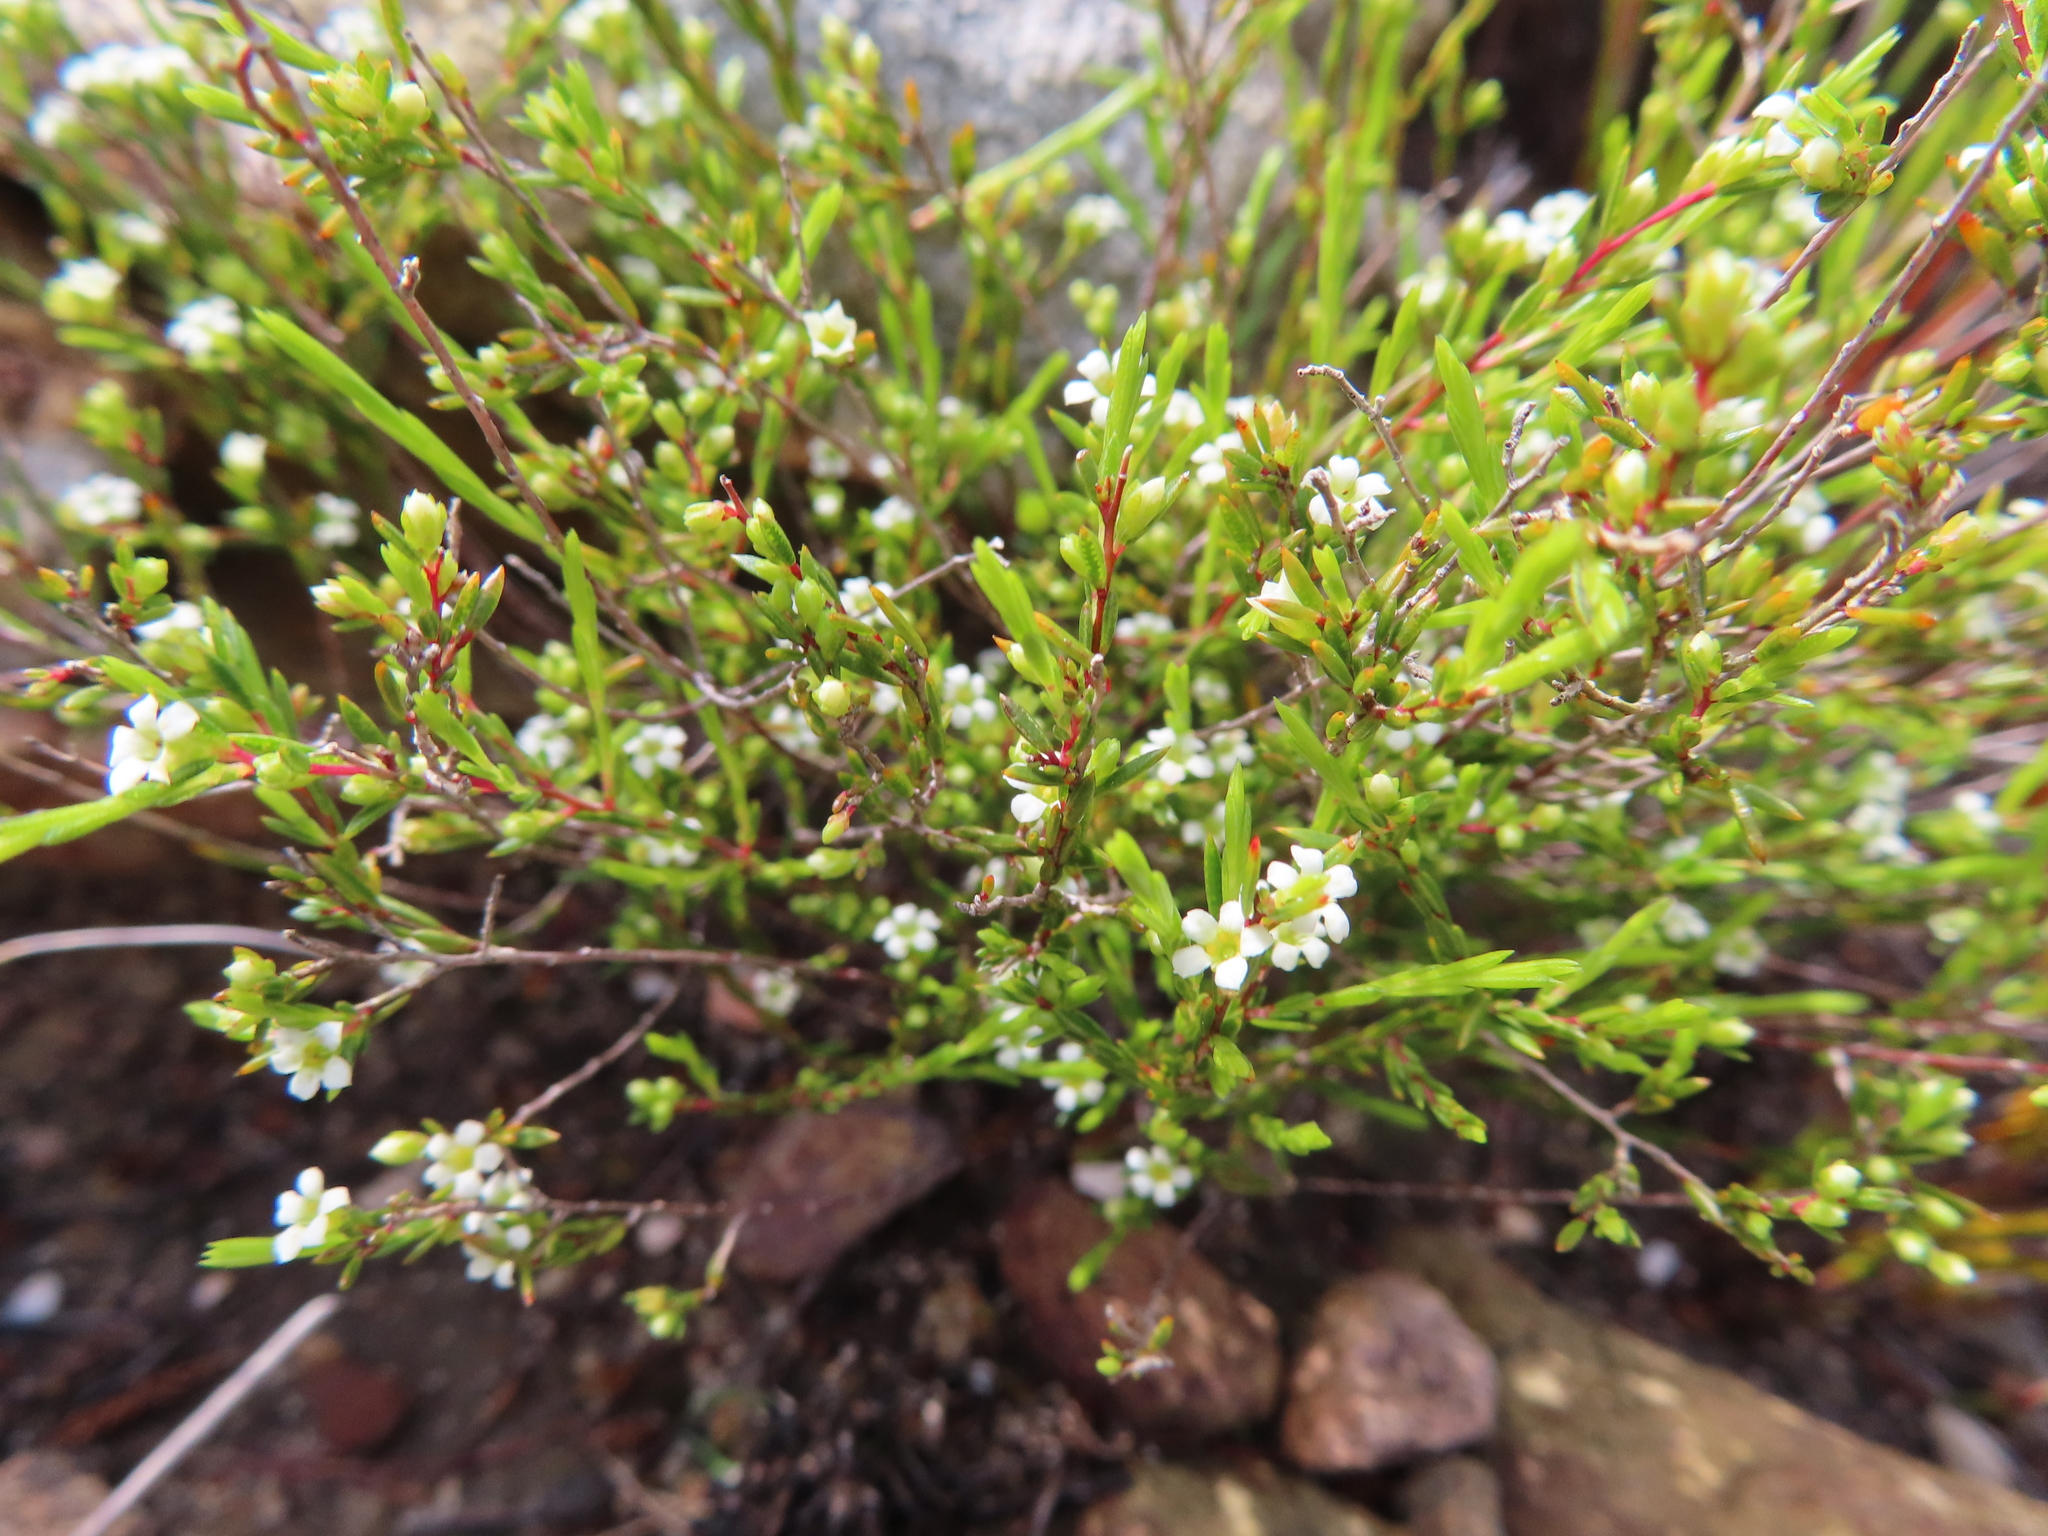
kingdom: Plantae
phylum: Tracheophyta
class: Magnoliopsida
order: Sapindales
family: Rutaceae
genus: Coleonema
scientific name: Coleonema juniperinum
